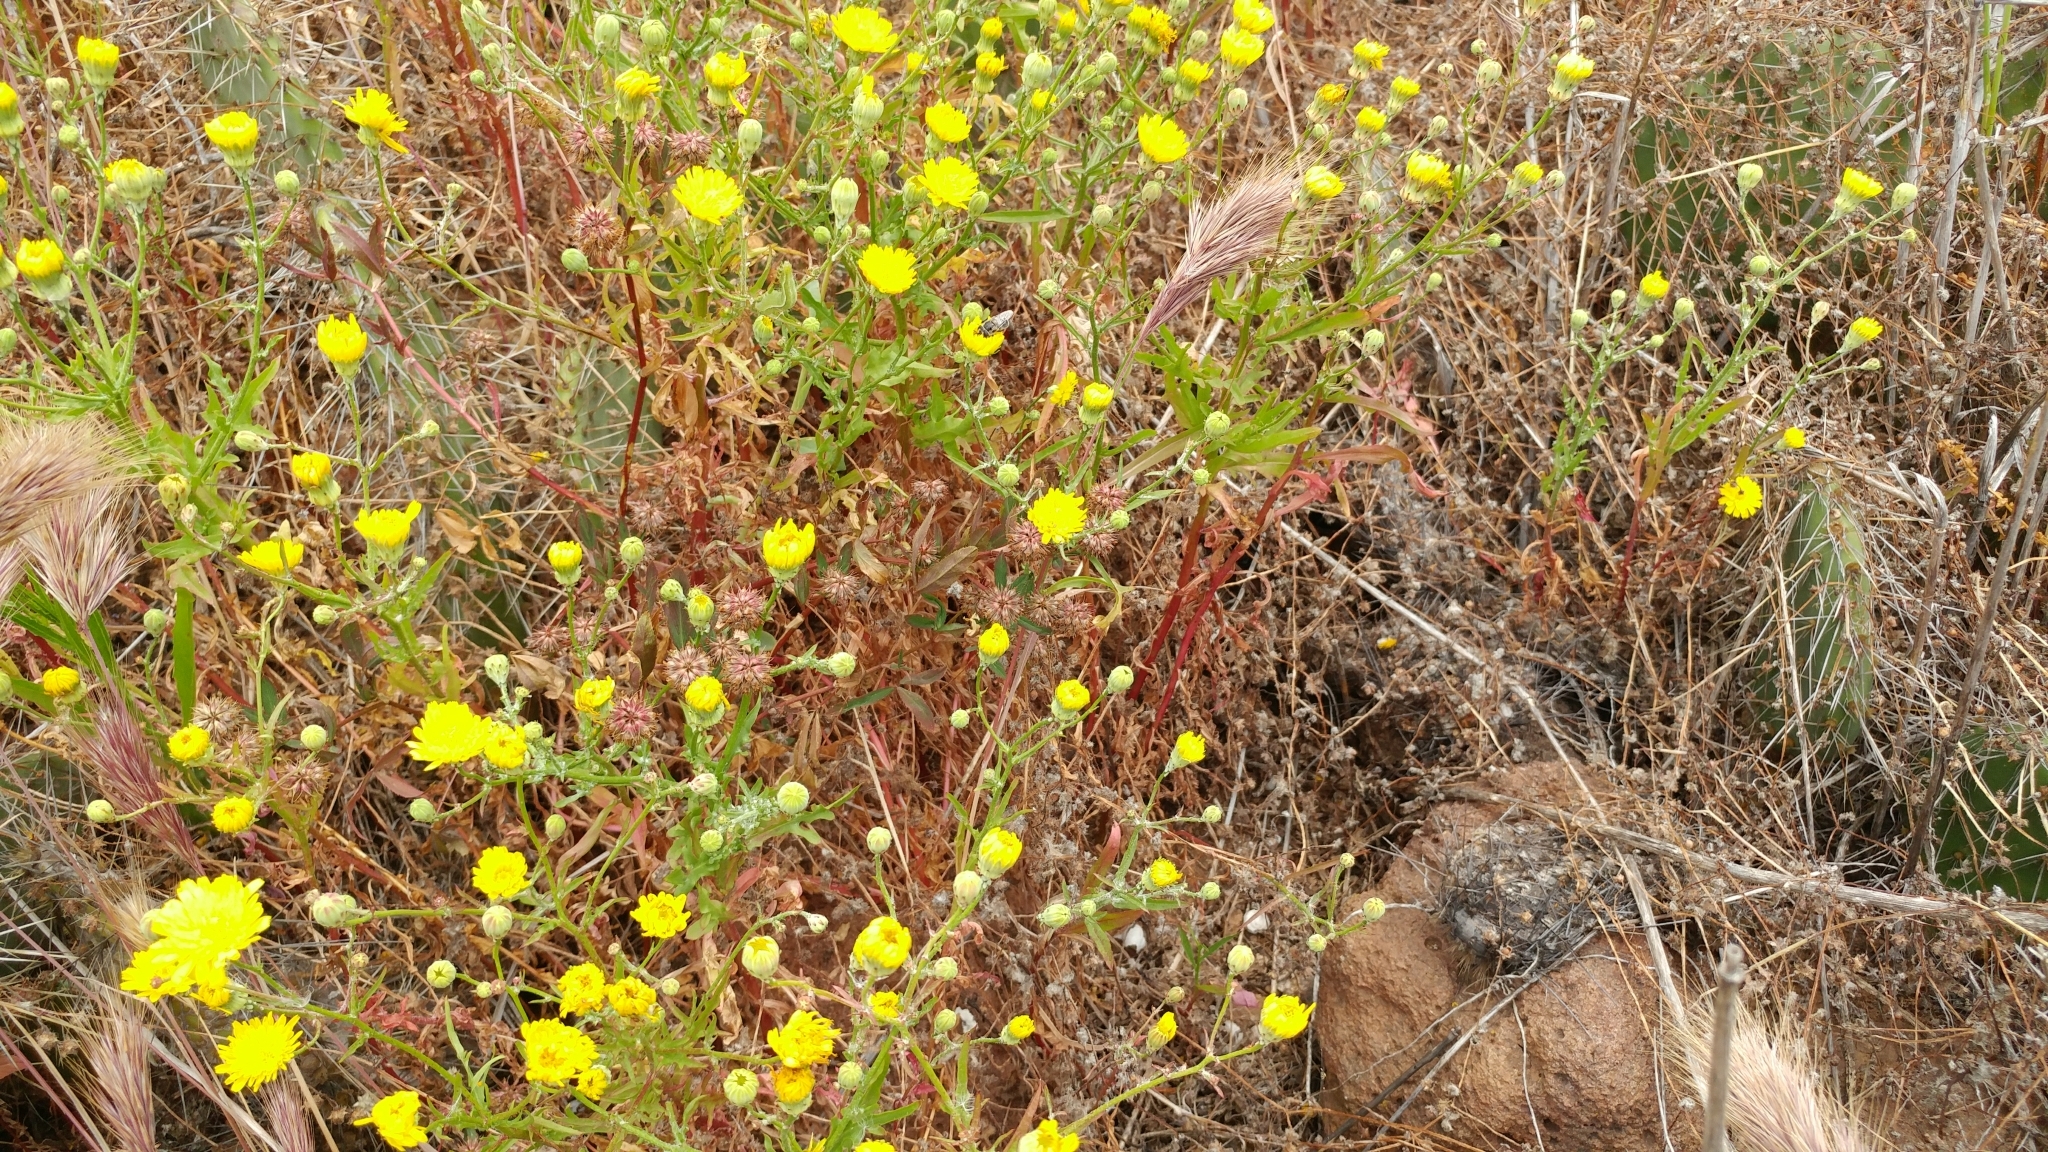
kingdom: Plantae
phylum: Tracheophyta
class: Magnoliopsida
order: Asterales
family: Asteraceae
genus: Malacothrix
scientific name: Malacothrix foliosa
